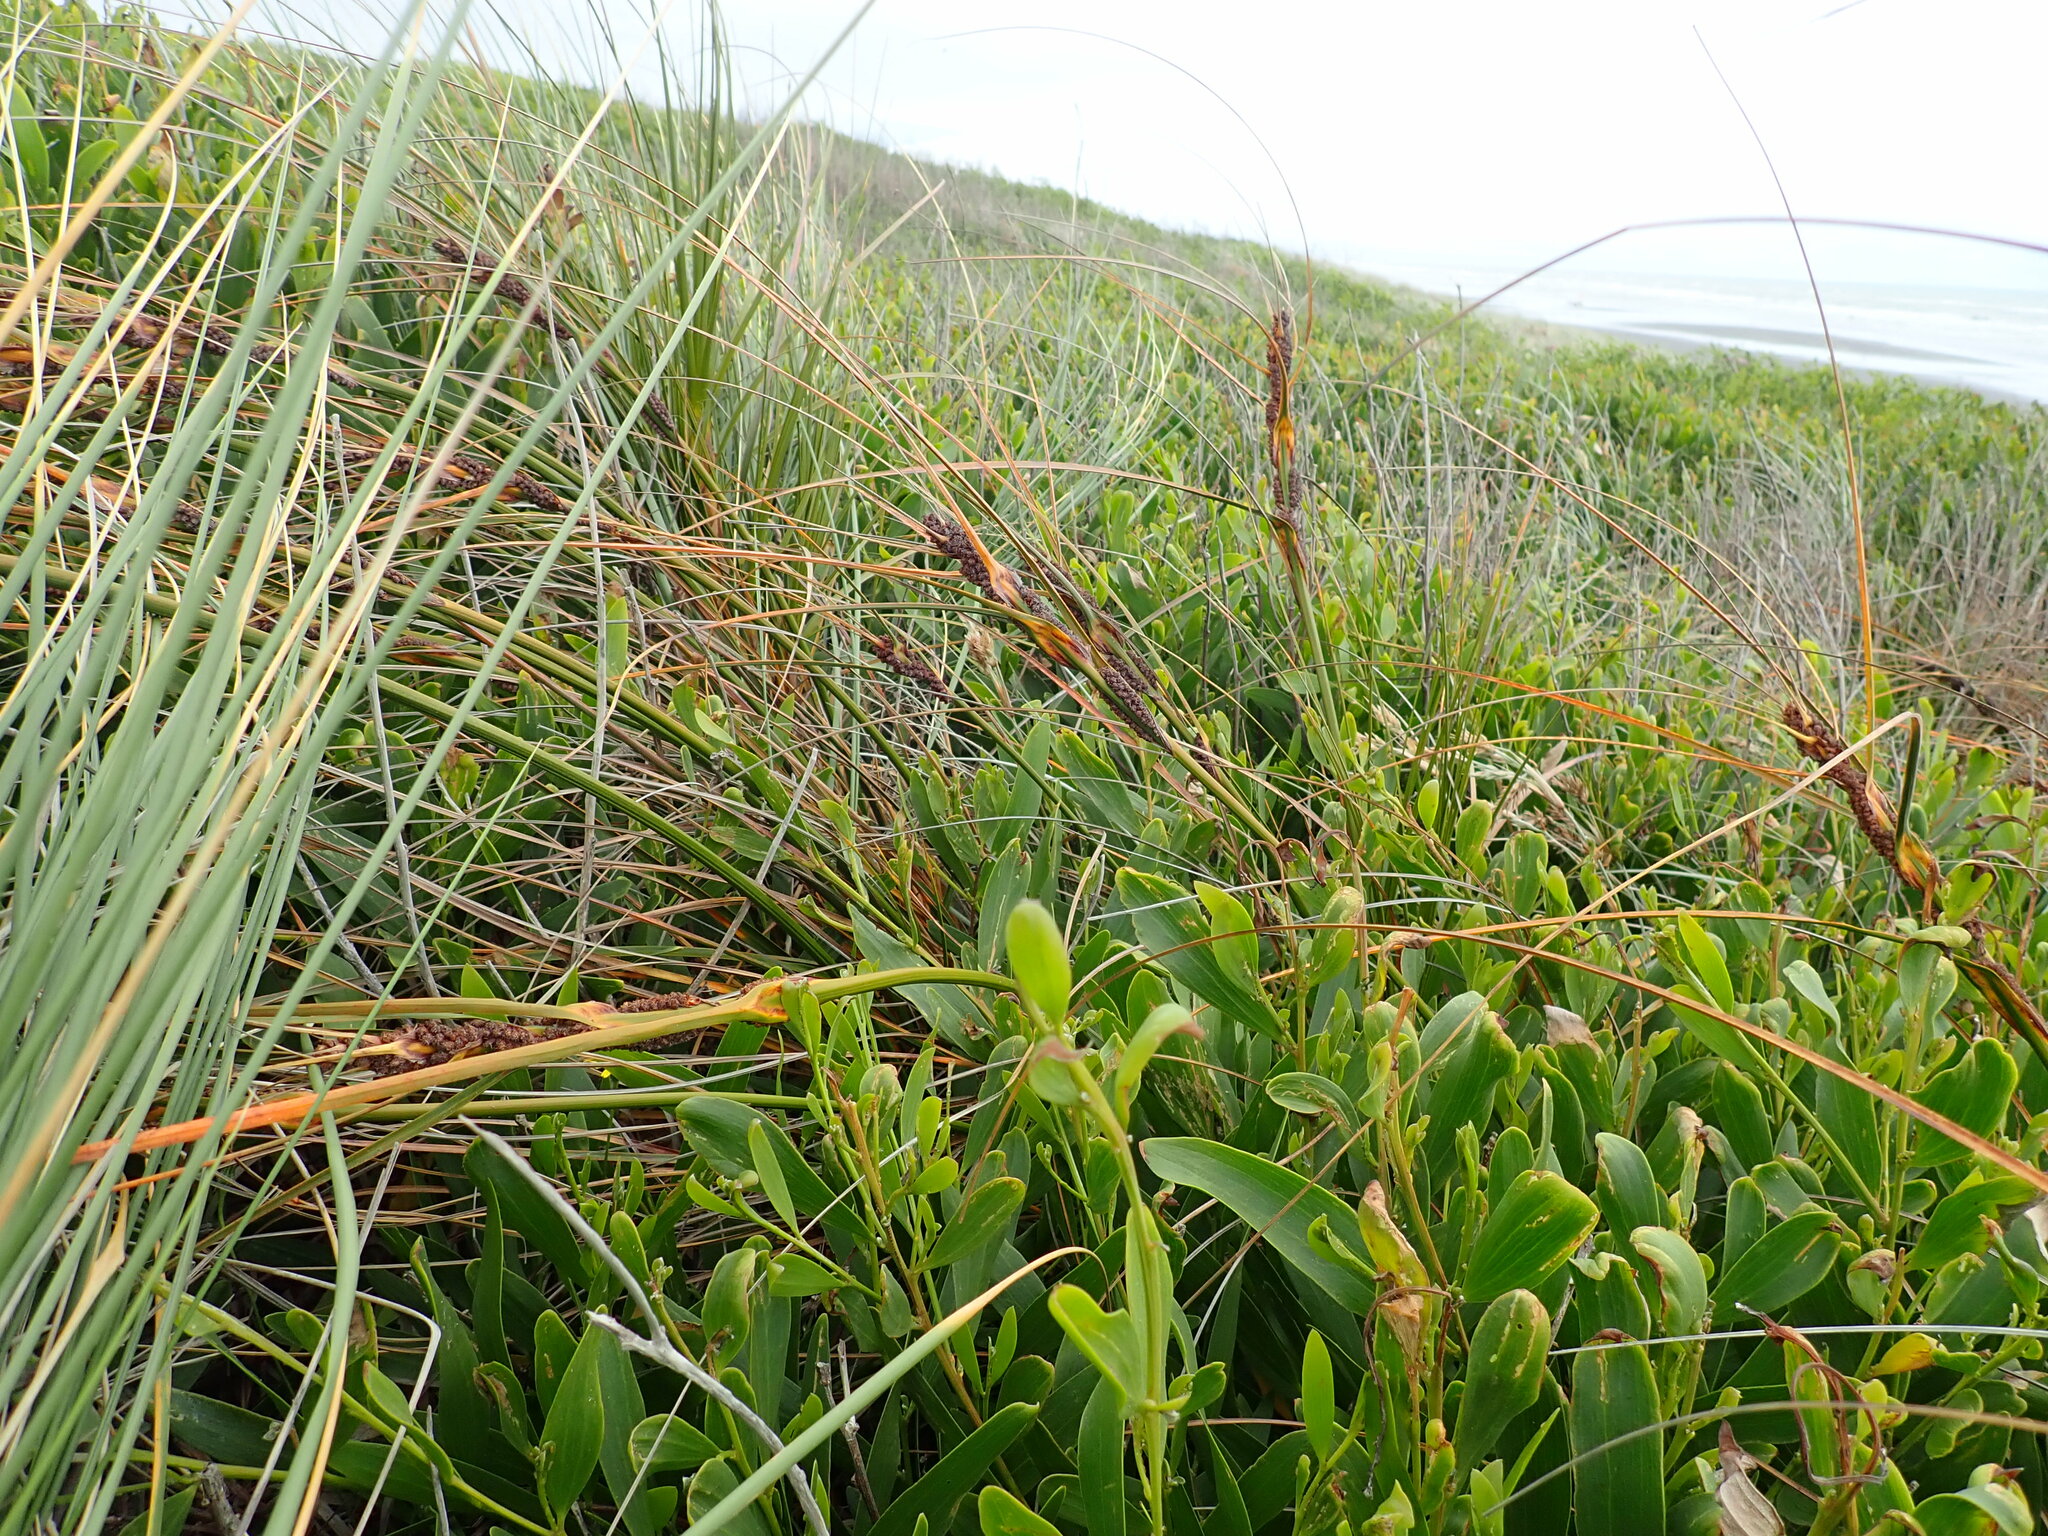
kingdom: Plantae
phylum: Tracheophyta
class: Liliopsida
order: Poales
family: Cyperaceae
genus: Ficinia
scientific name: Ficinia spiralis
